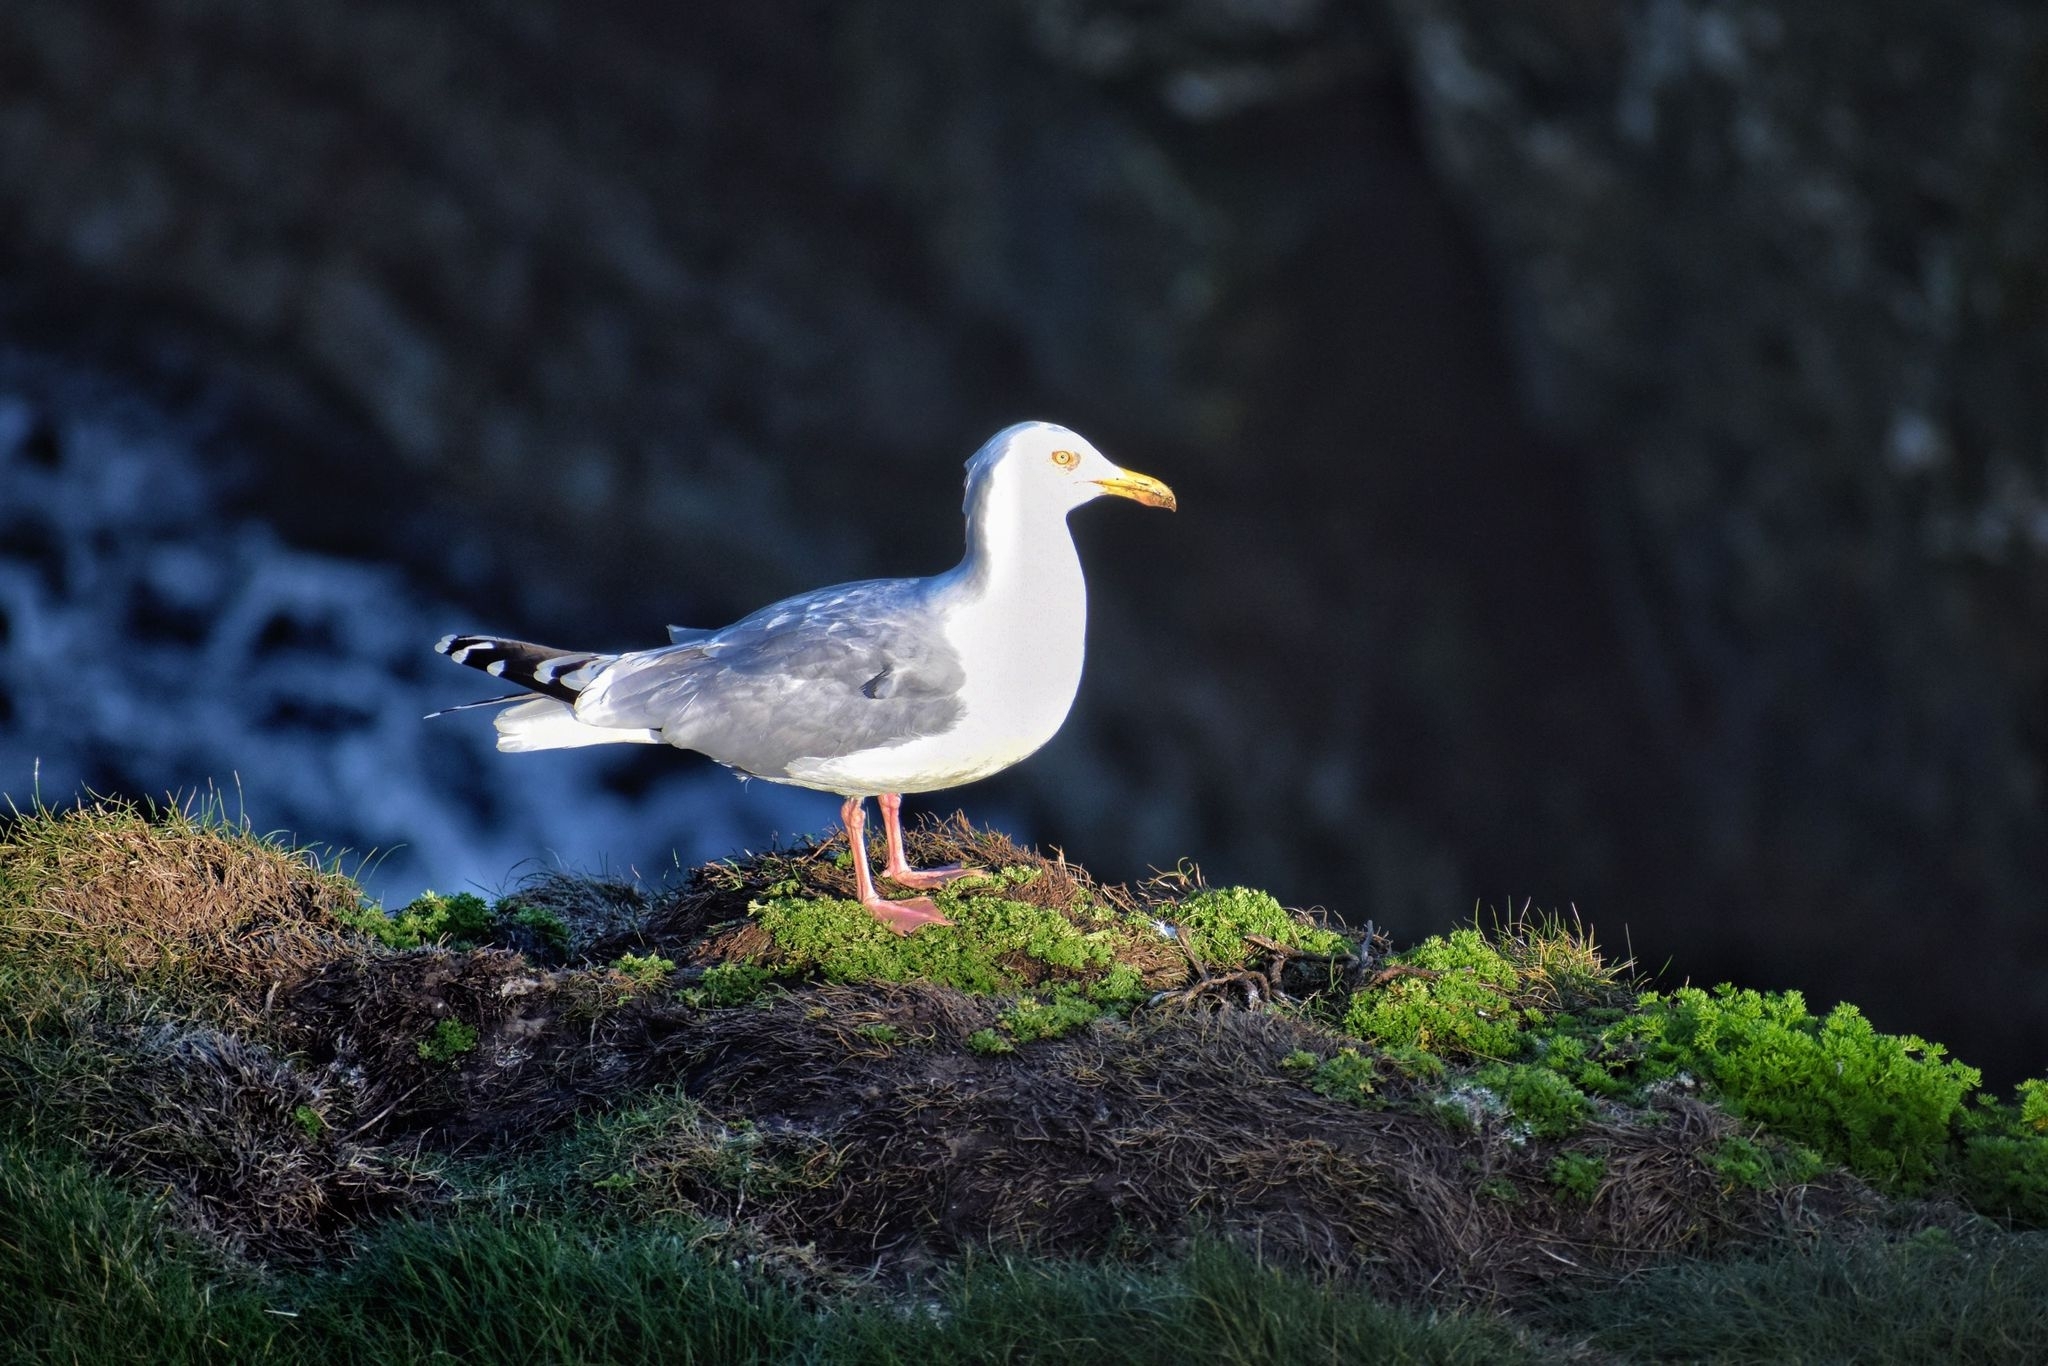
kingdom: Animalia
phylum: Chordata
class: Aves
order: Charadriiformes
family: Laridae
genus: Larus
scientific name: Larus argentatus
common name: Herring gull
